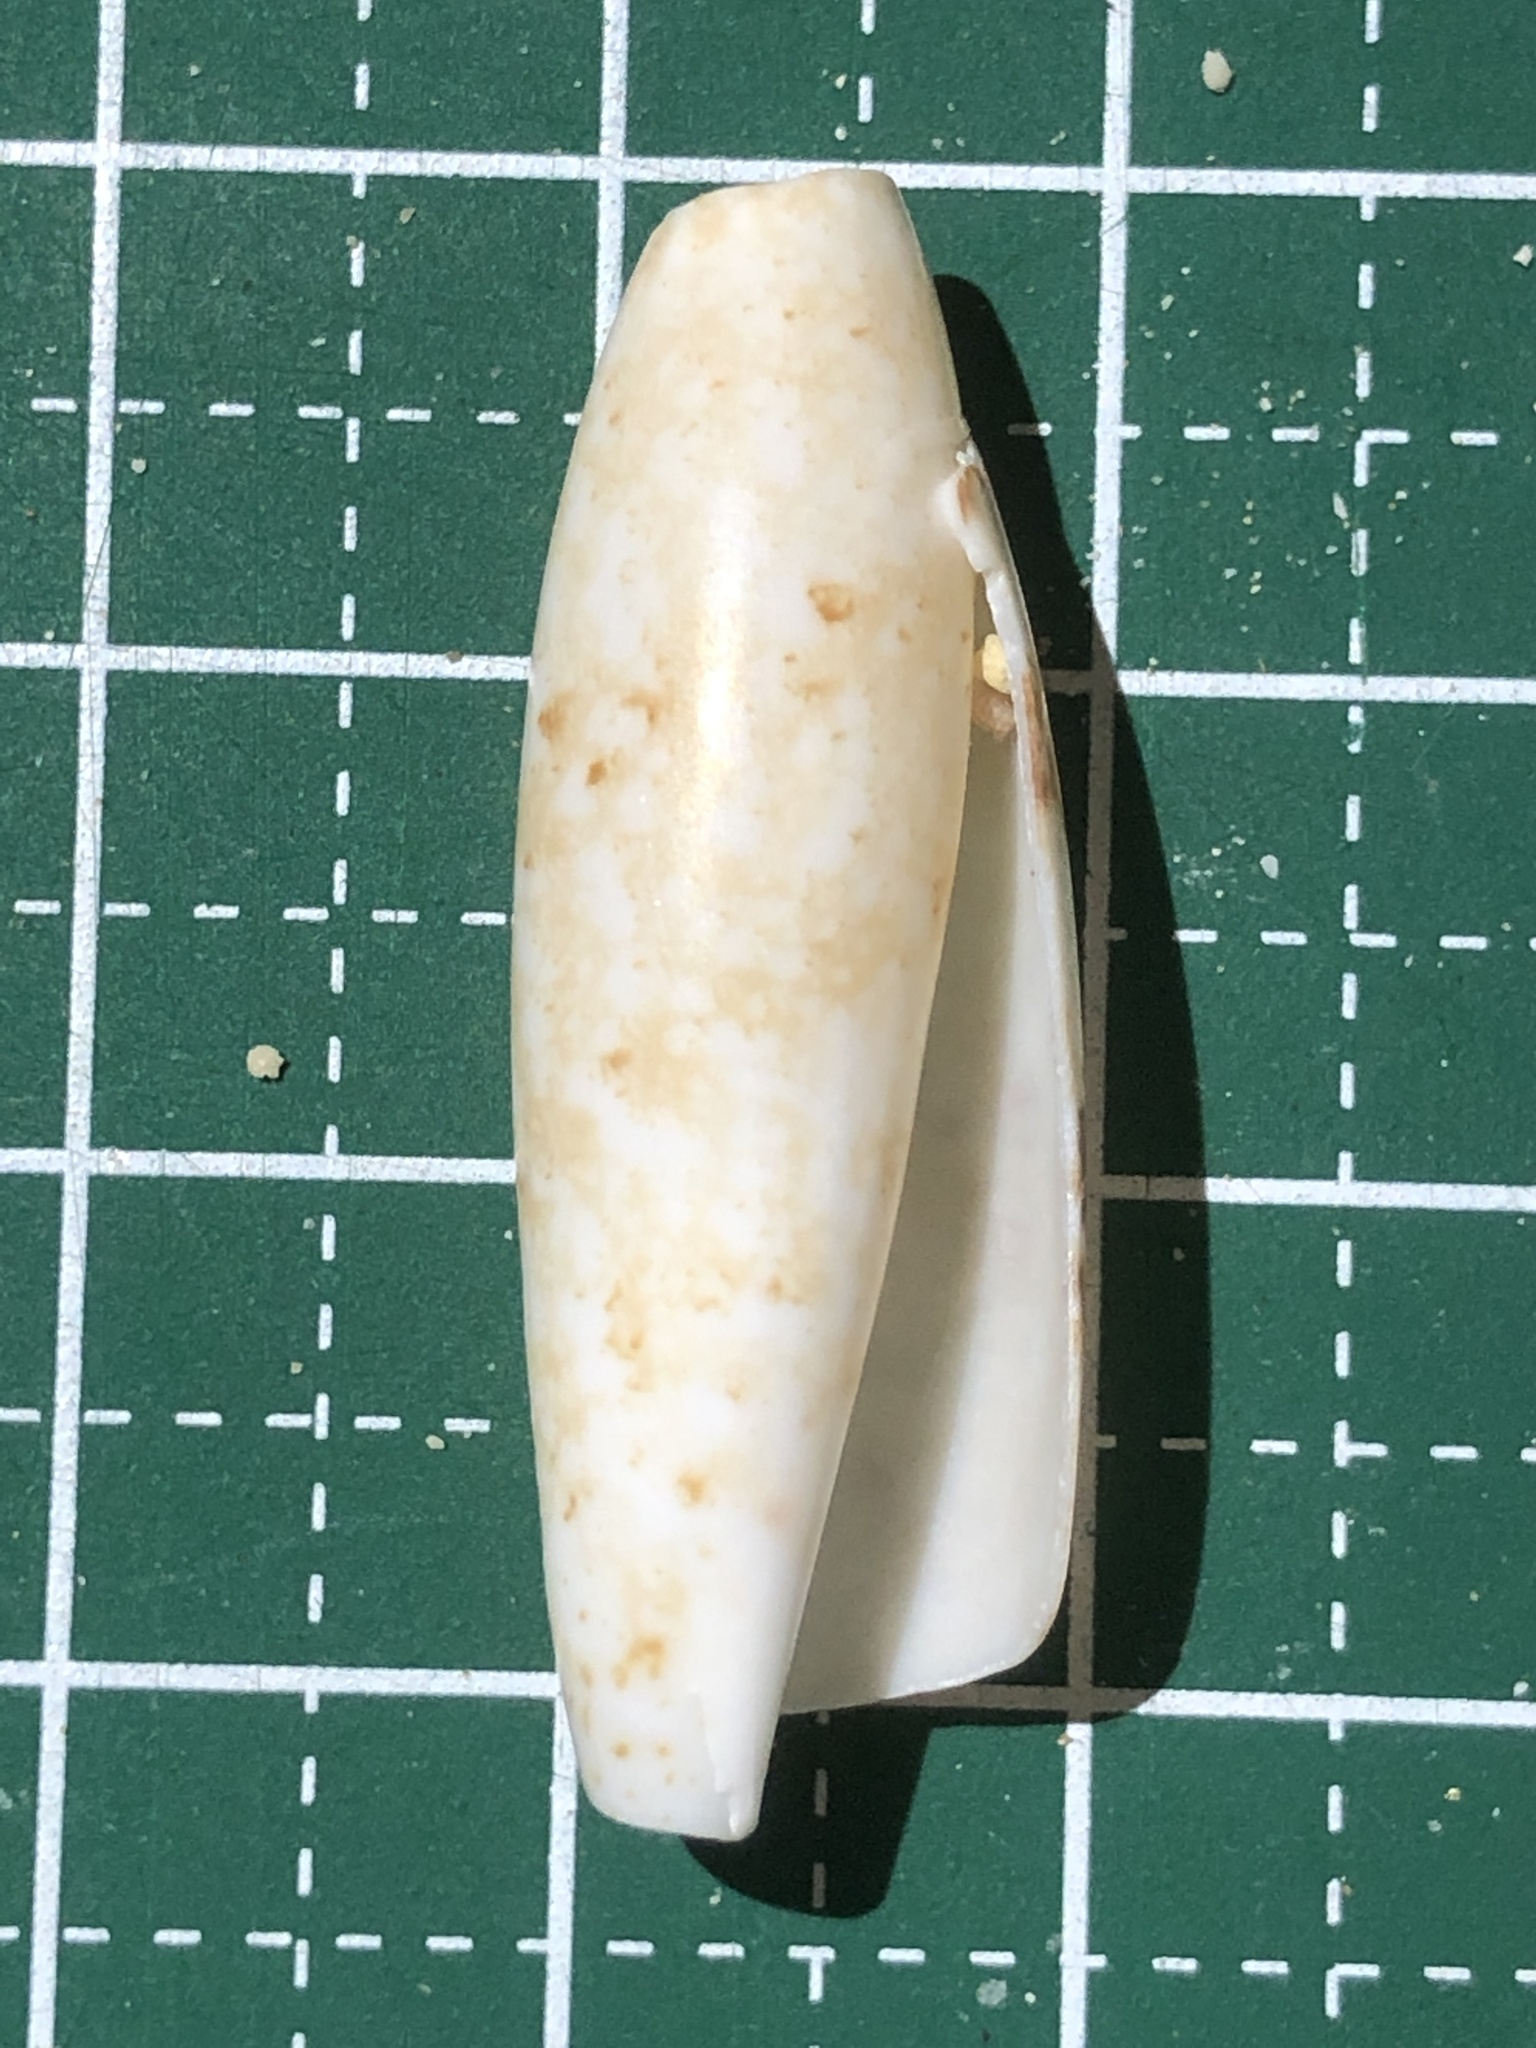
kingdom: Animalia
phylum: Mollusca
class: Gastropoda
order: Littorinimorpha
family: Seraphsidae
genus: Terebellum
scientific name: Terebellum terebellum
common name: Little auger
